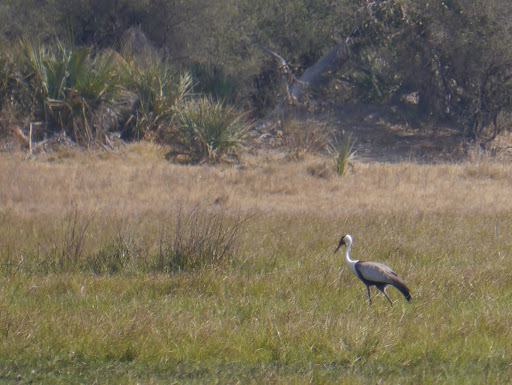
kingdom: Animalia
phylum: Chordata
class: Aves
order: Gruiformes
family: Gruidae
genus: Bugeranus
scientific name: Bugeranus carunculatus
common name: Wattled crane
